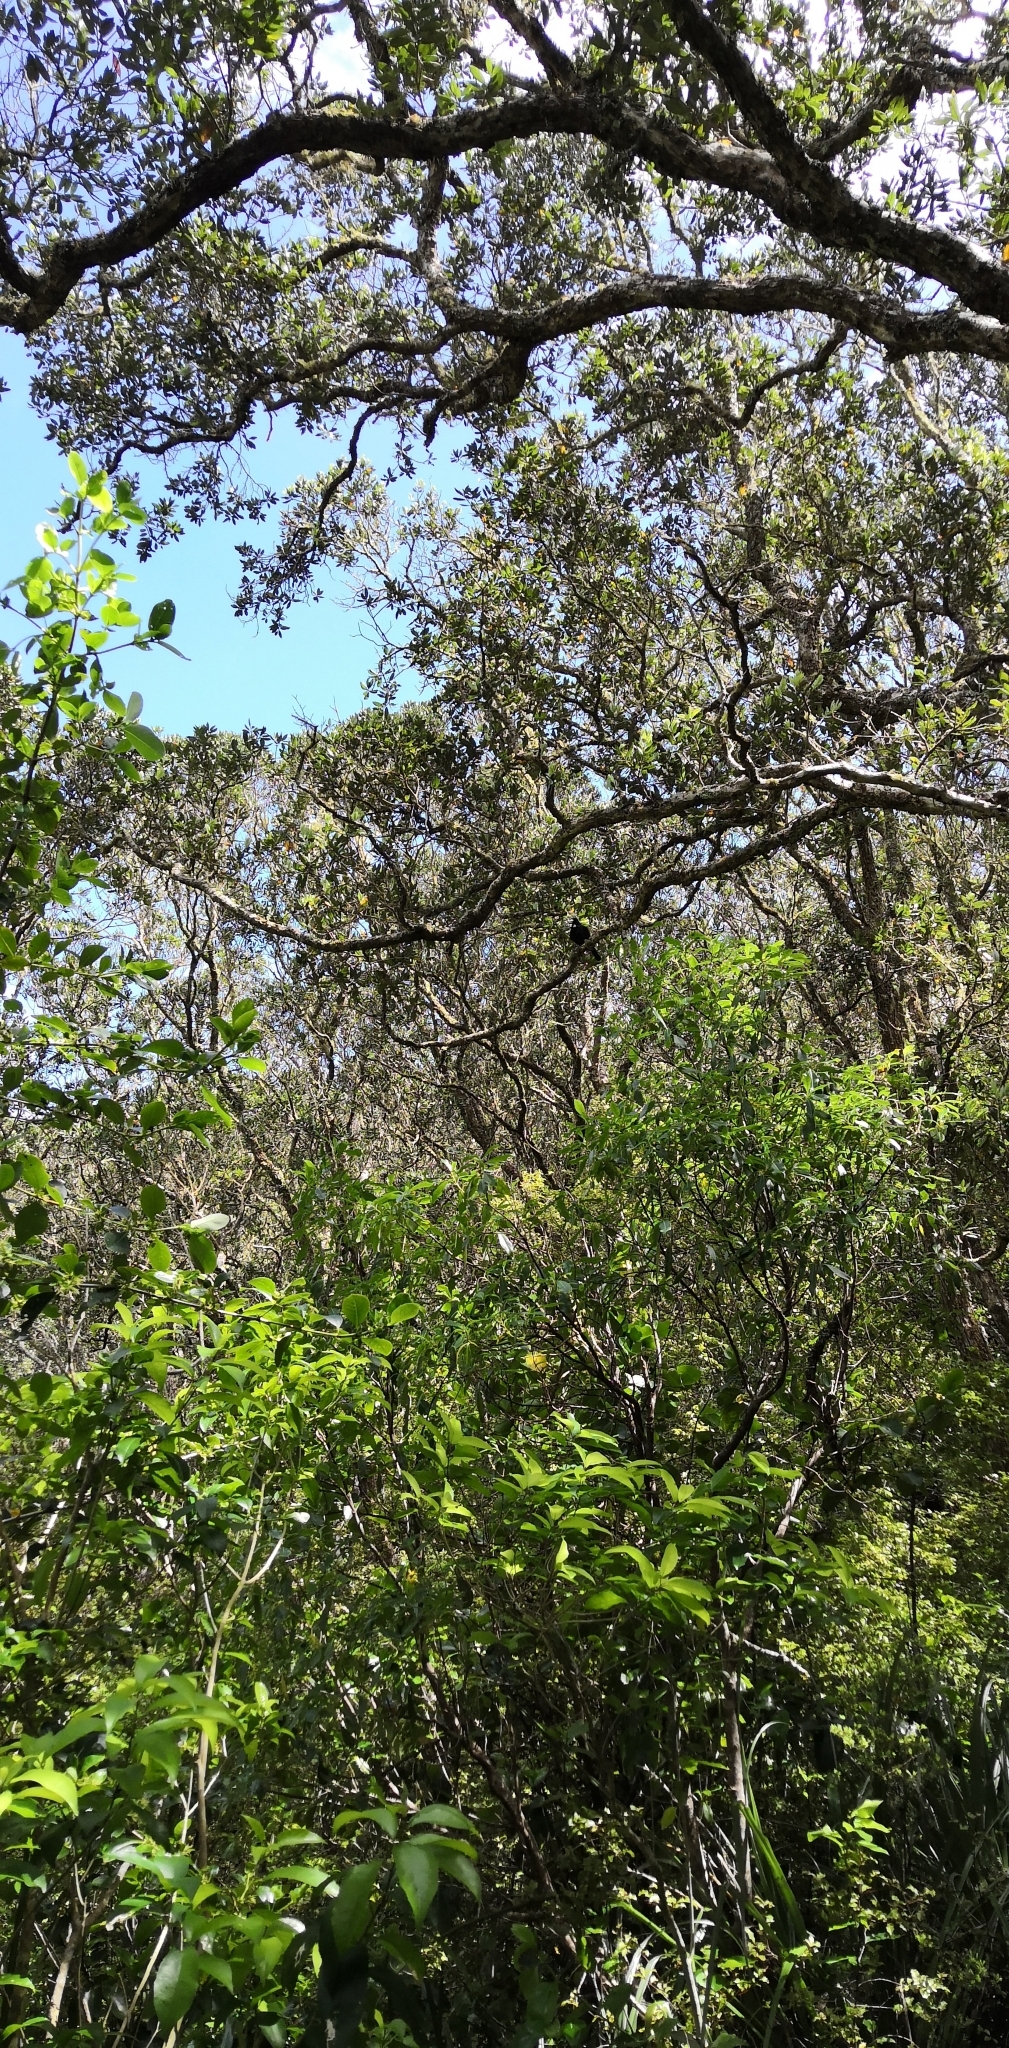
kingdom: Animalia
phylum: Chordata
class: Aves
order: Passeriformes
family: Meliphagidae
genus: Prosthemadera
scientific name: Prosthemadera novaeseelandiae
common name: Tui
